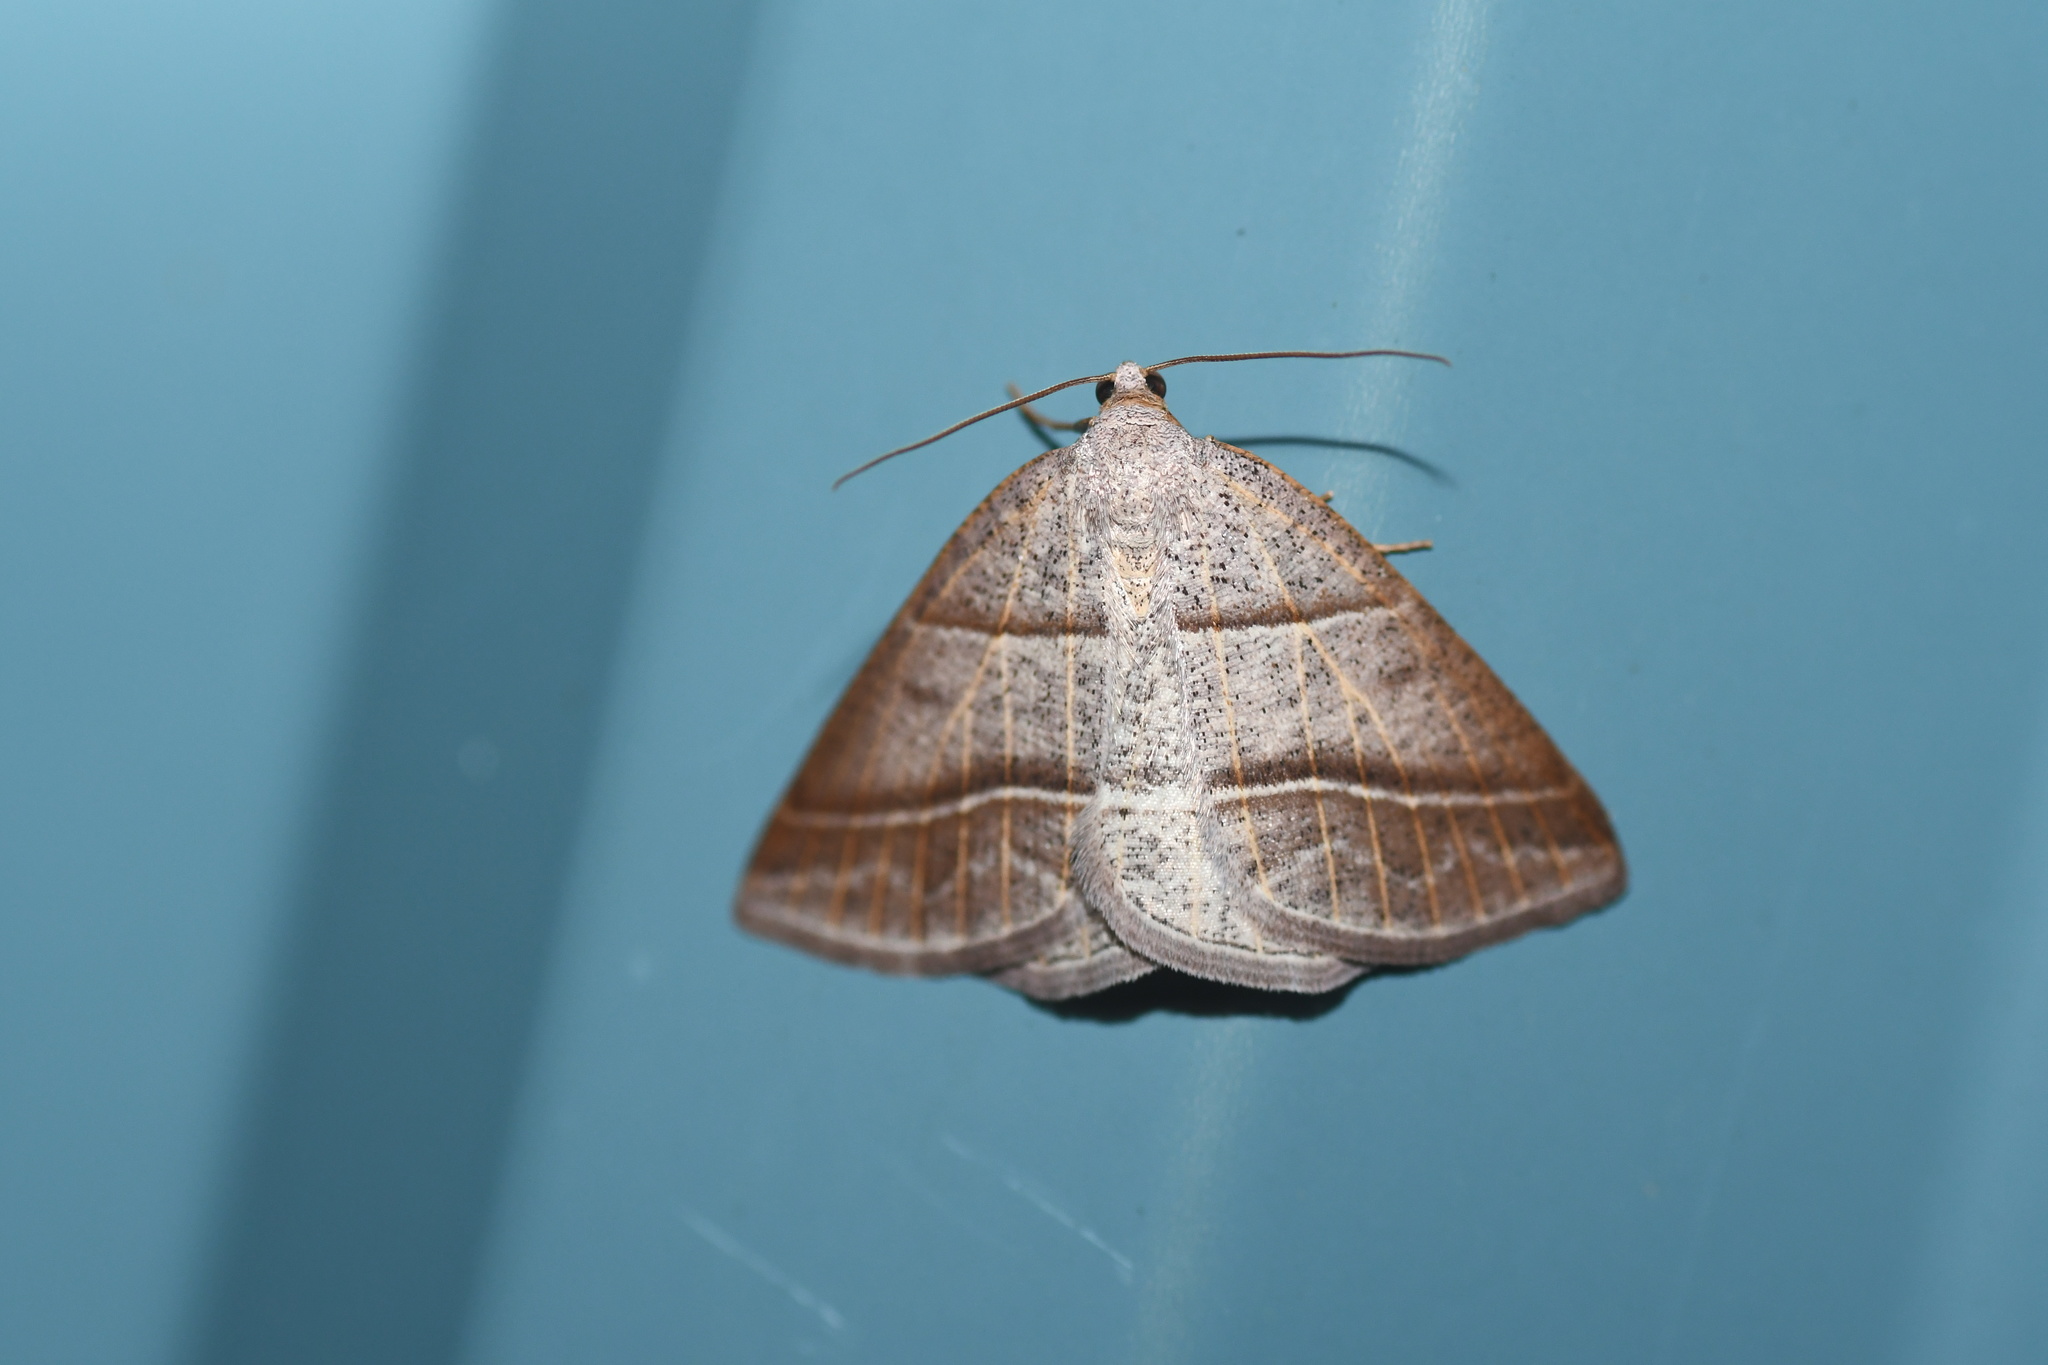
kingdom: Animalia
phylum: Arthropoda
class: Insecta
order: Lepidoptera
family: Pterophoridae
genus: Pterophorus
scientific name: Pterophorus Petrophora subaequaria
